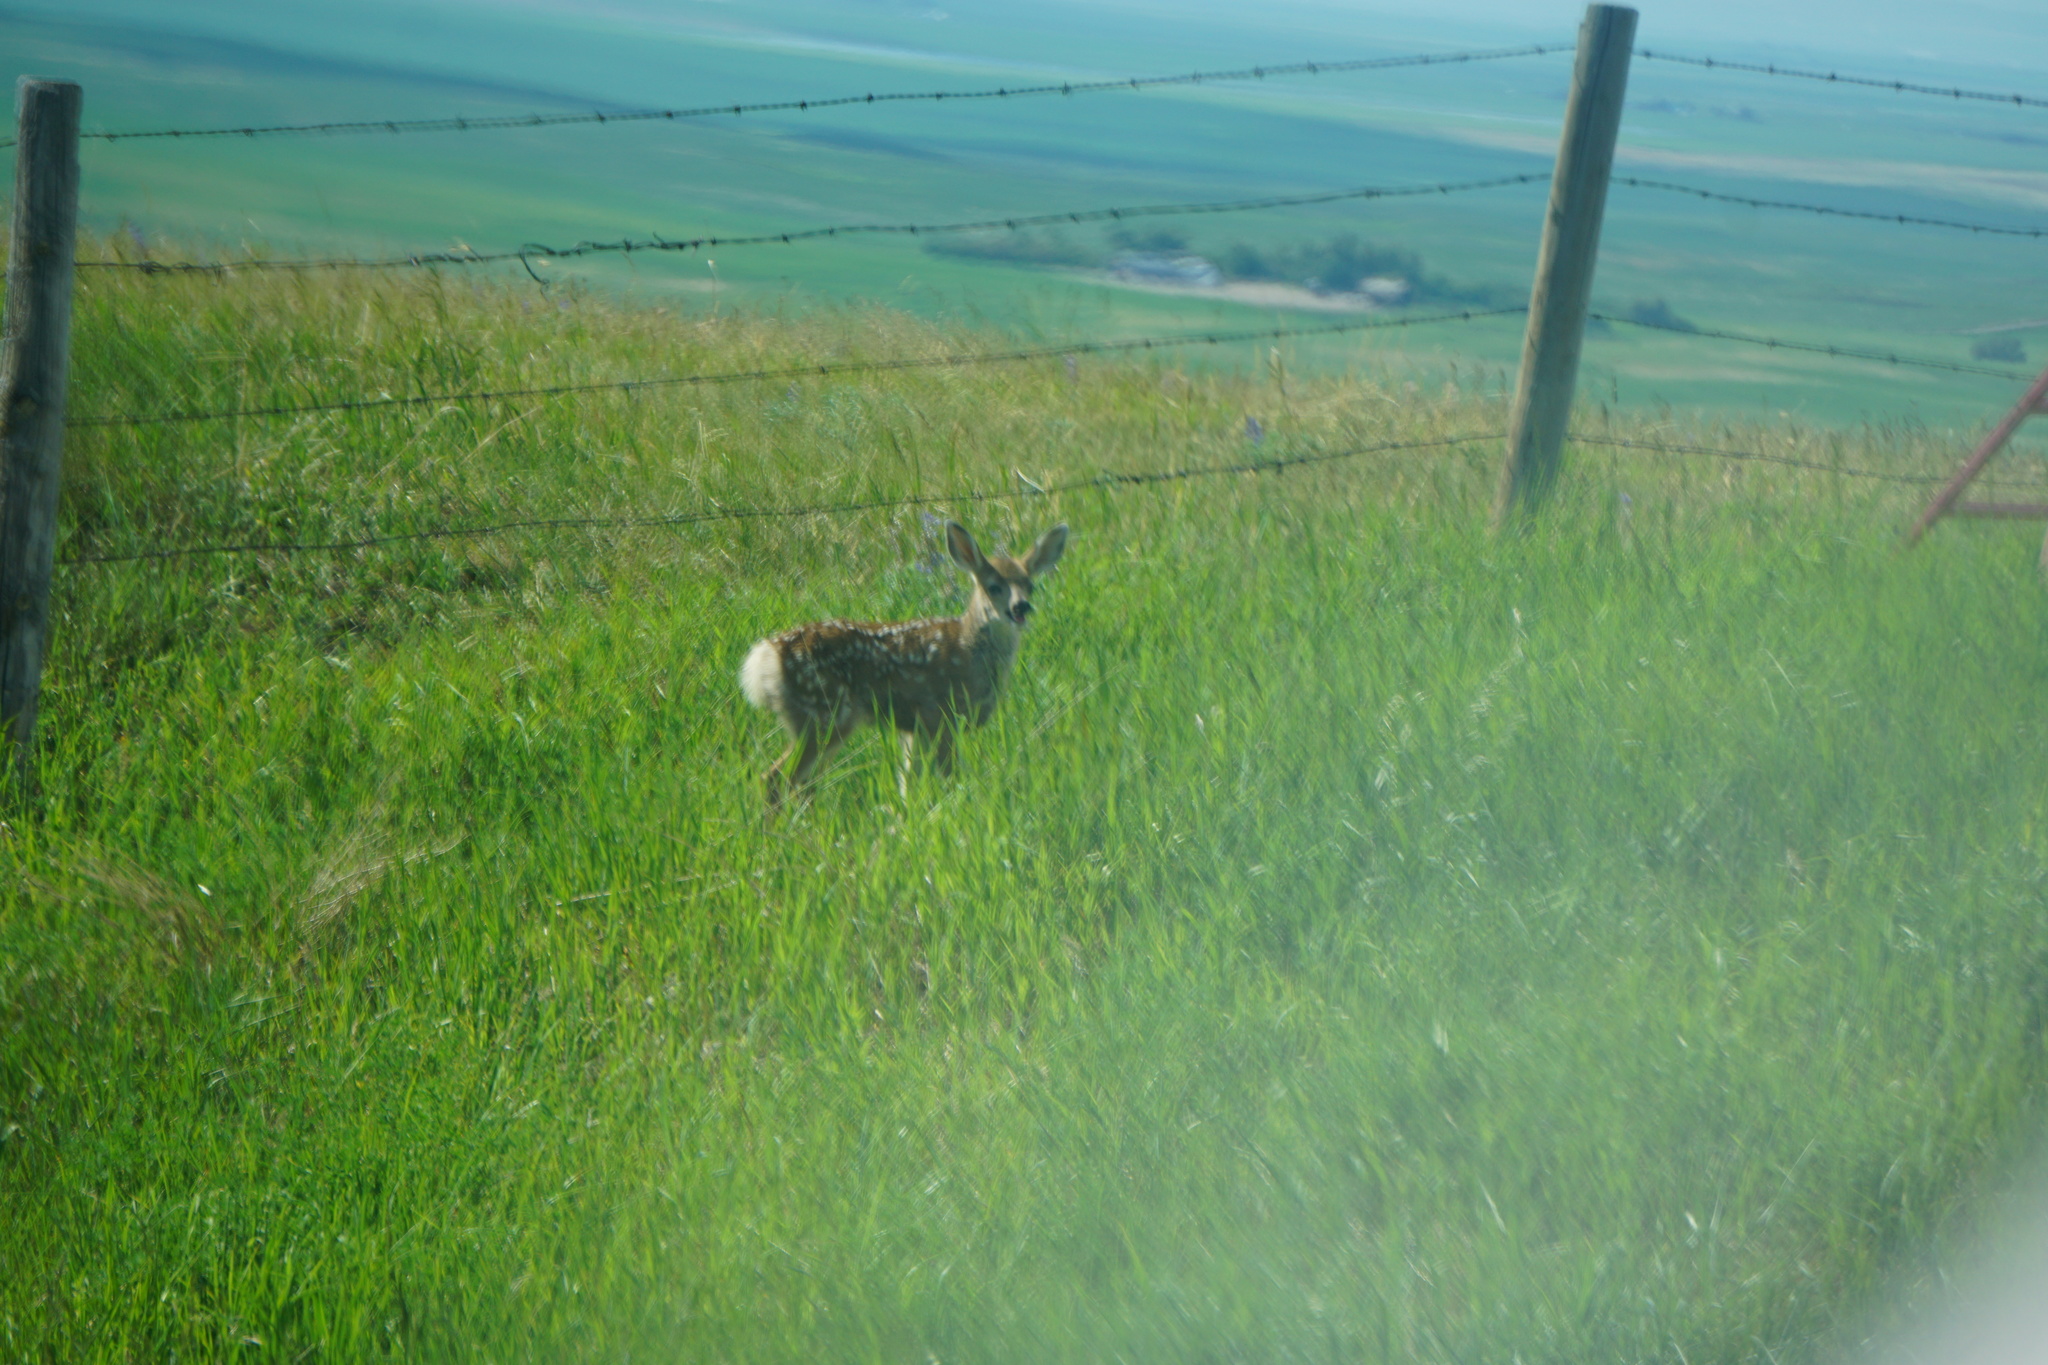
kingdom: Animalia
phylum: Chordata
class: Mammalia
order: Artiodactyla
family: Cervidae
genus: Odocoileus
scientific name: Odocoileus hemionus
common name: Mule deer
